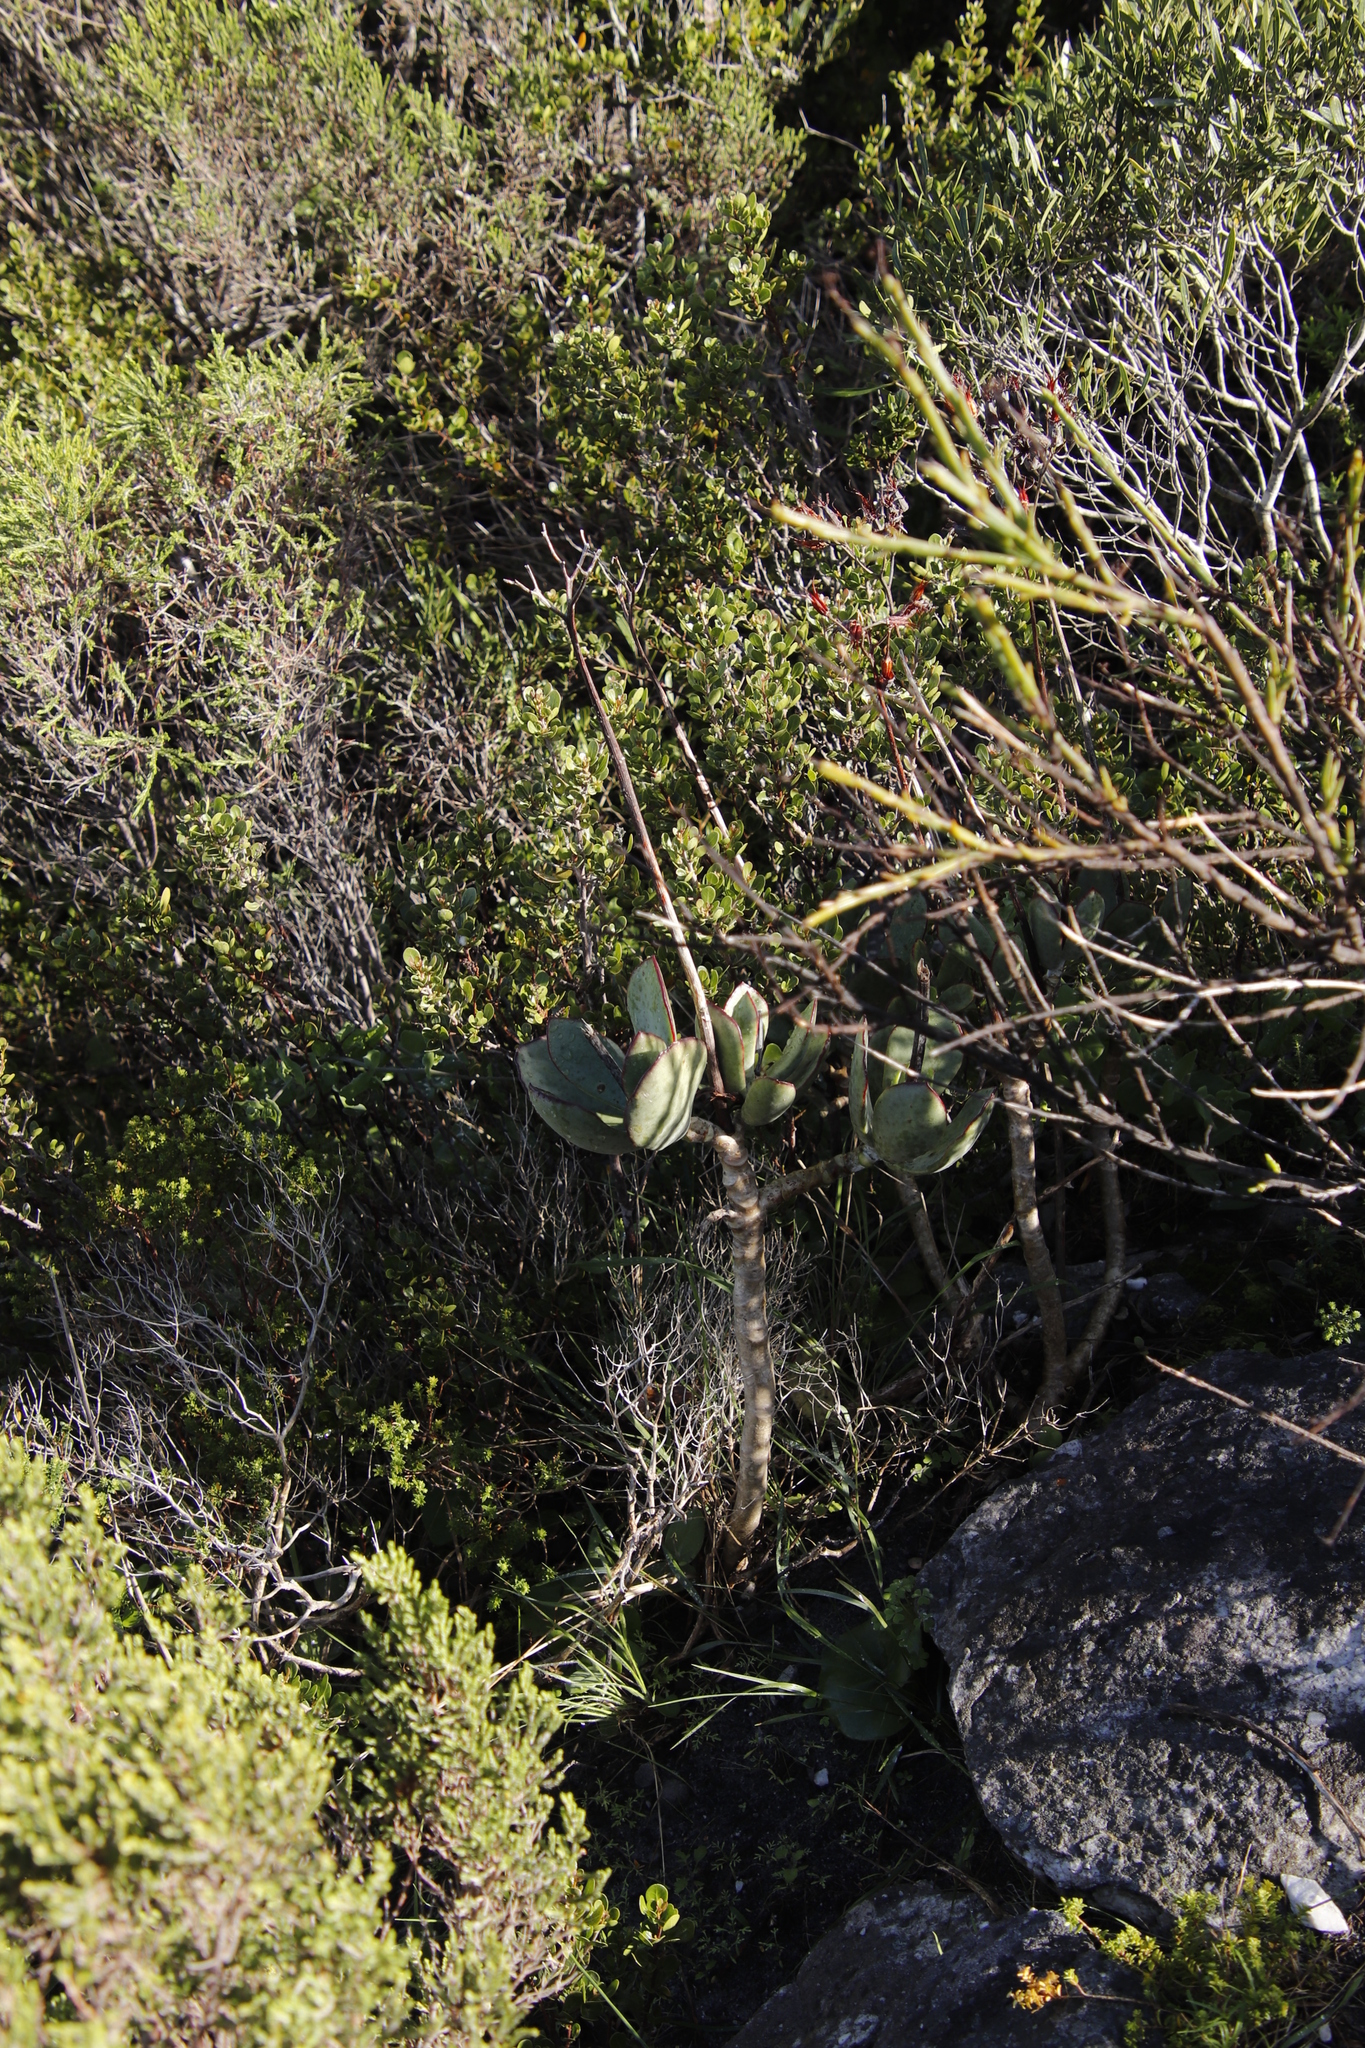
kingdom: Plantae
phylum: Tracheophyta
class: Magnoliopsida
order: Saxifragales
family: Crassulaceae
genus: Cotyledon
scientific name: Cotyledon orbiculata
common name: Pig's ear
